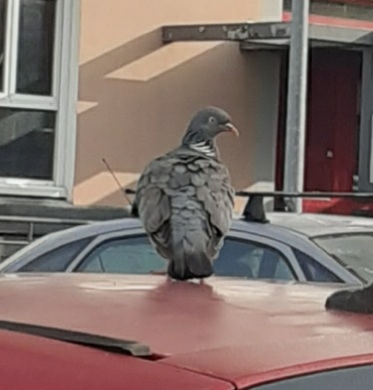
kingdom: Animalia
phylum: Chordata
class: Aves
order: Columbiformes
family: Columbidae
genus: Columba
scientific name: Columba palumbus
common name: Common wood pigeon
